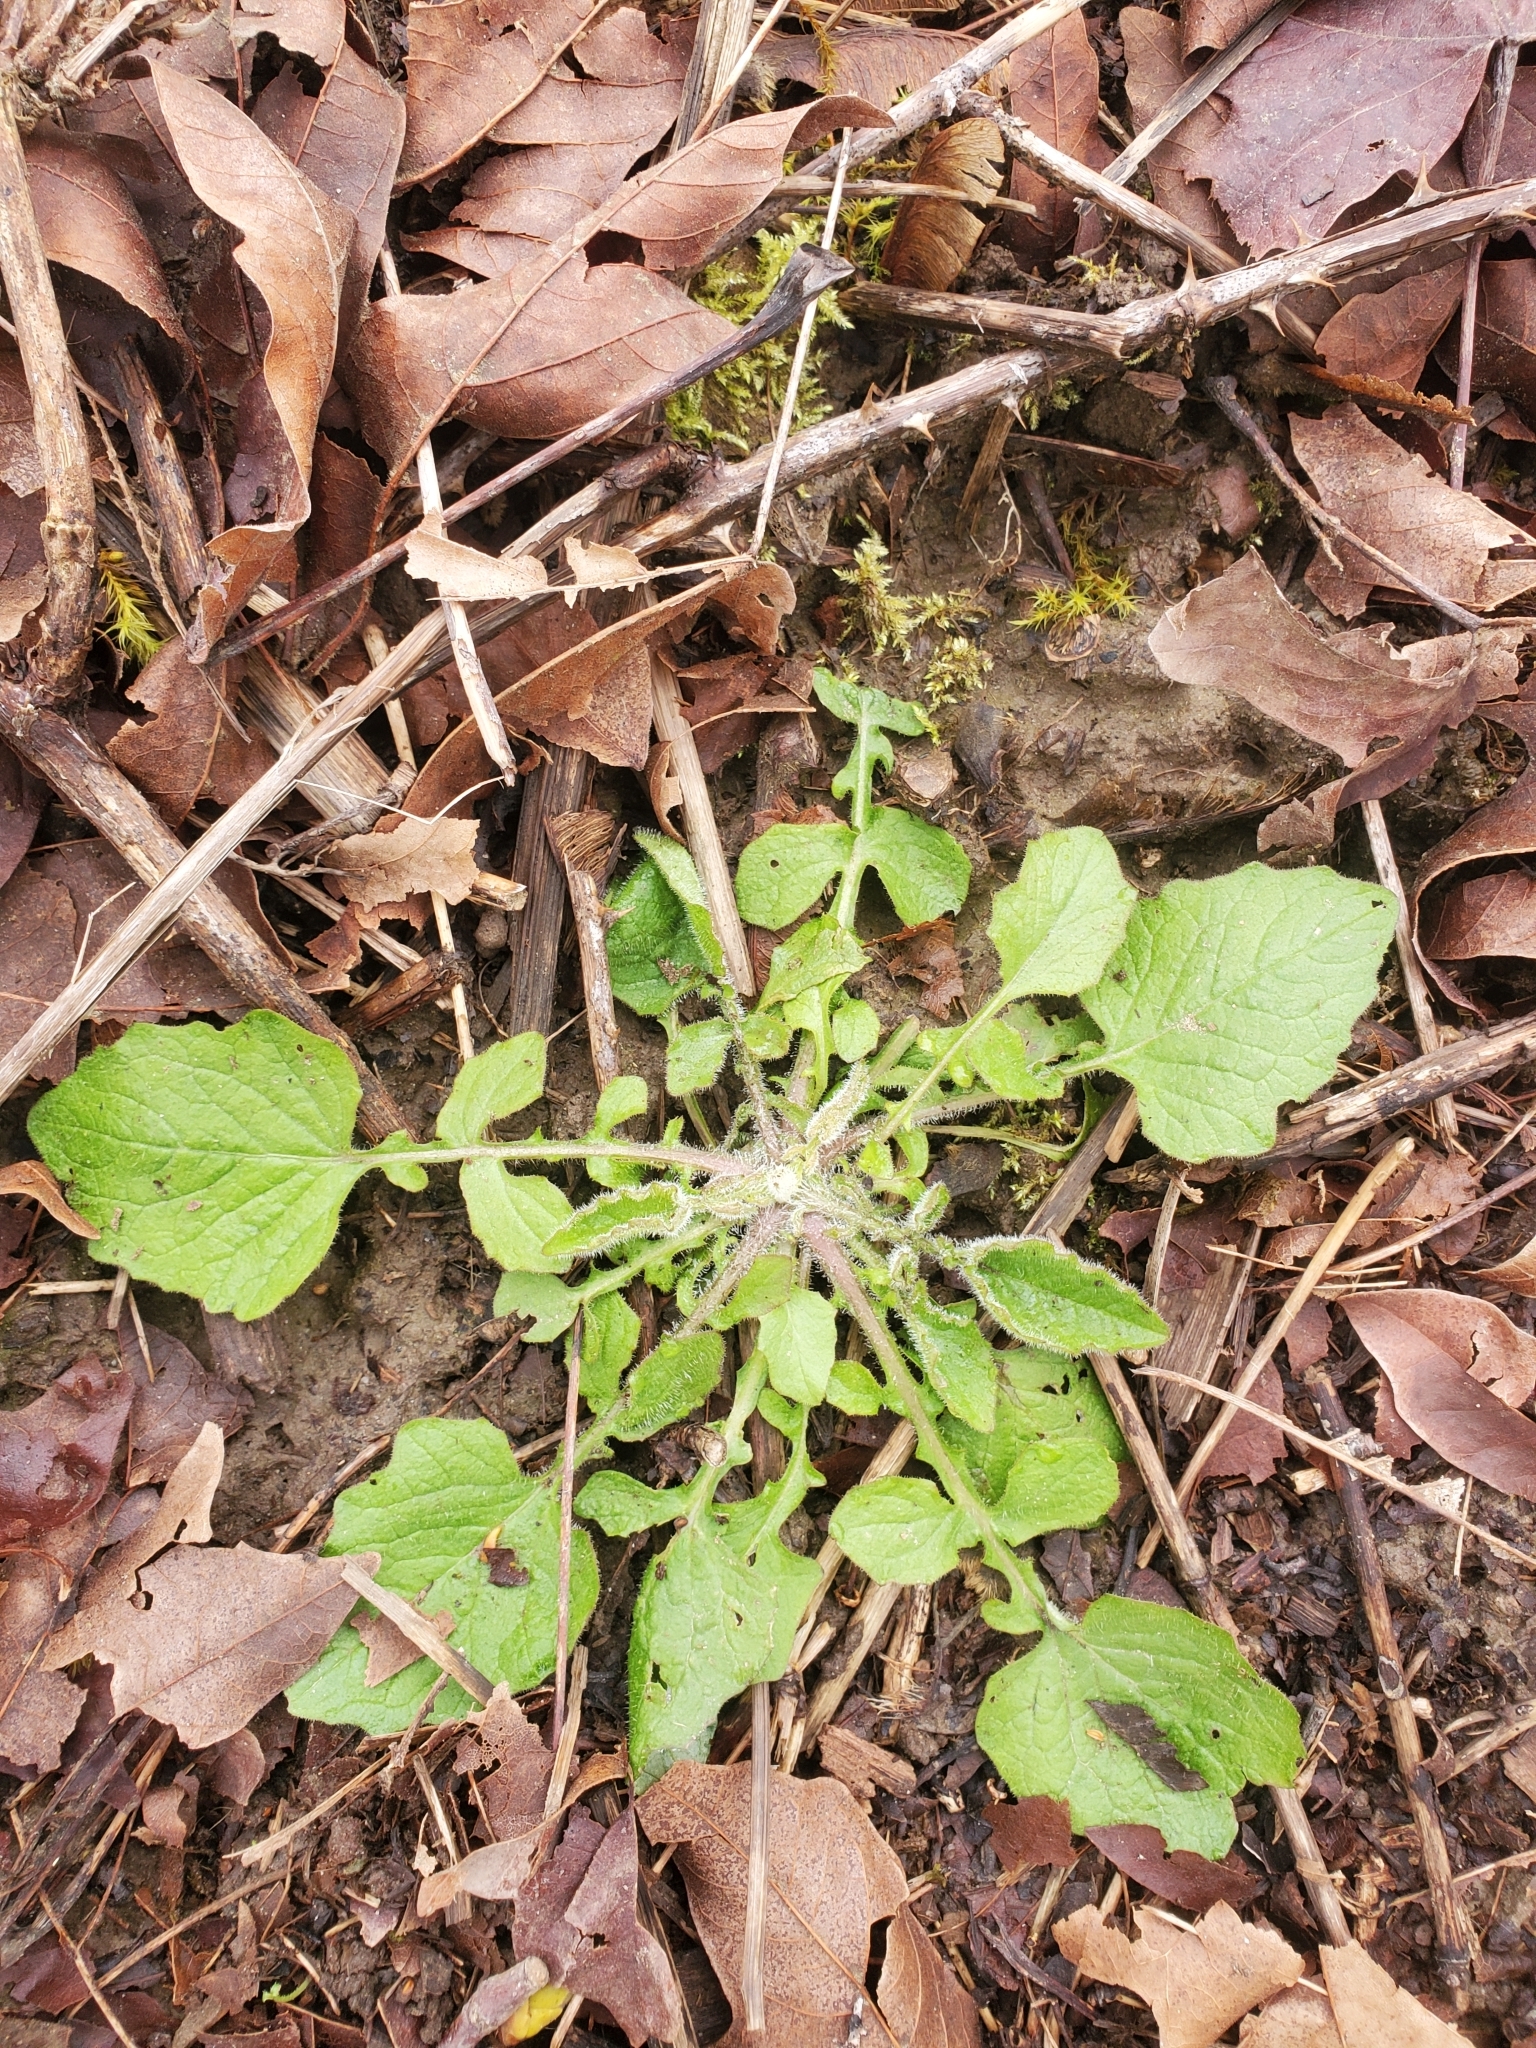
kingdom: Plantae
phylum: Tracheophyta
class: Magnoliopsida
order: Asterales
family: Asteraceae
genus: Lapsana
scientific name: Lapsana communis
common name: Nipplewort
